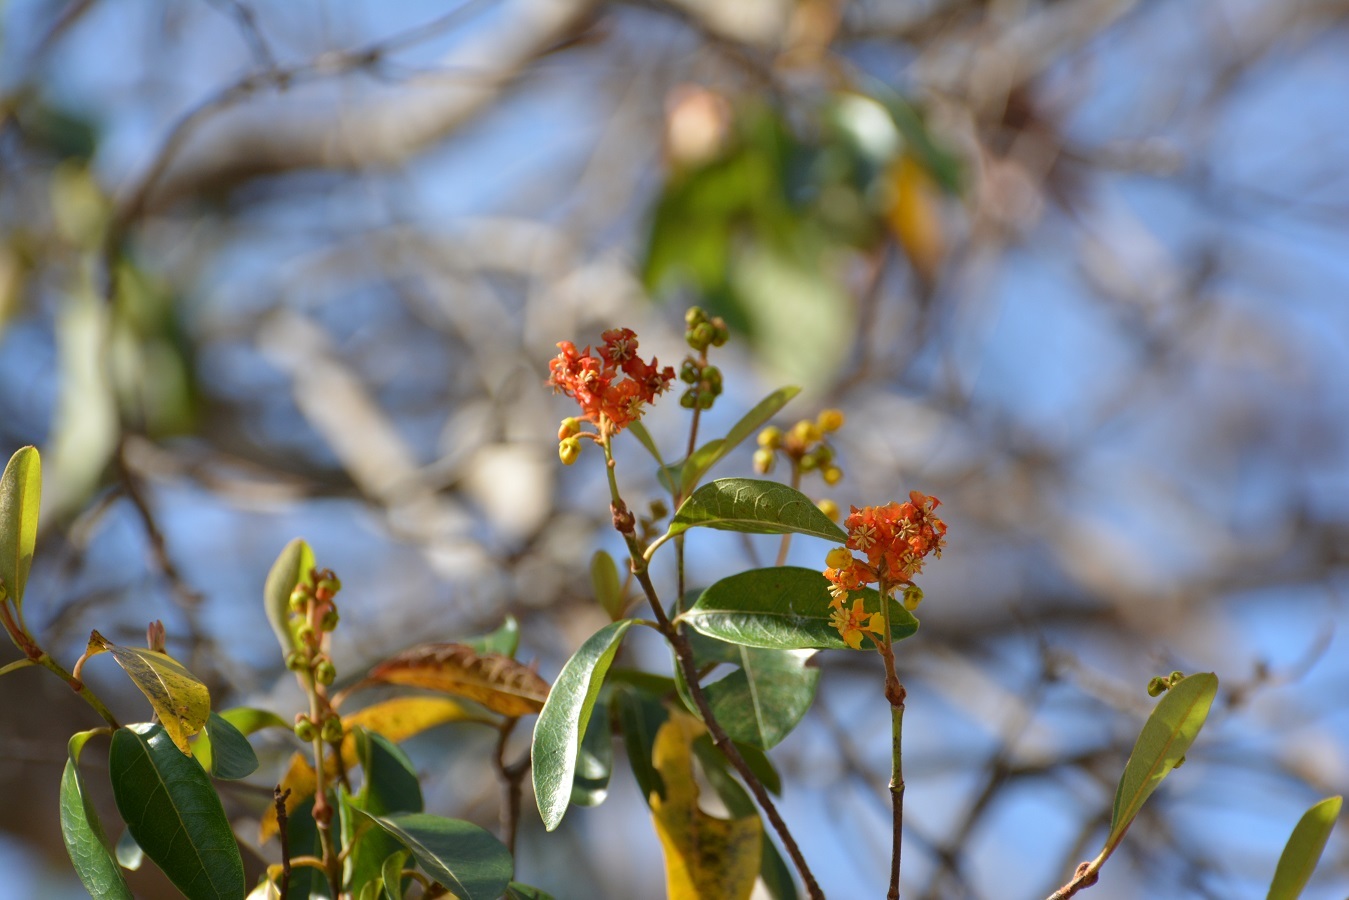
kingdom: Plantae
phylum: Tracheophyta
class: Magnoliopsida
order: Malpighiales
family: Malpighiaceae
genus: Byrsonima
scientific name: Byrsonima crassifolia
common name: Golden spoon
